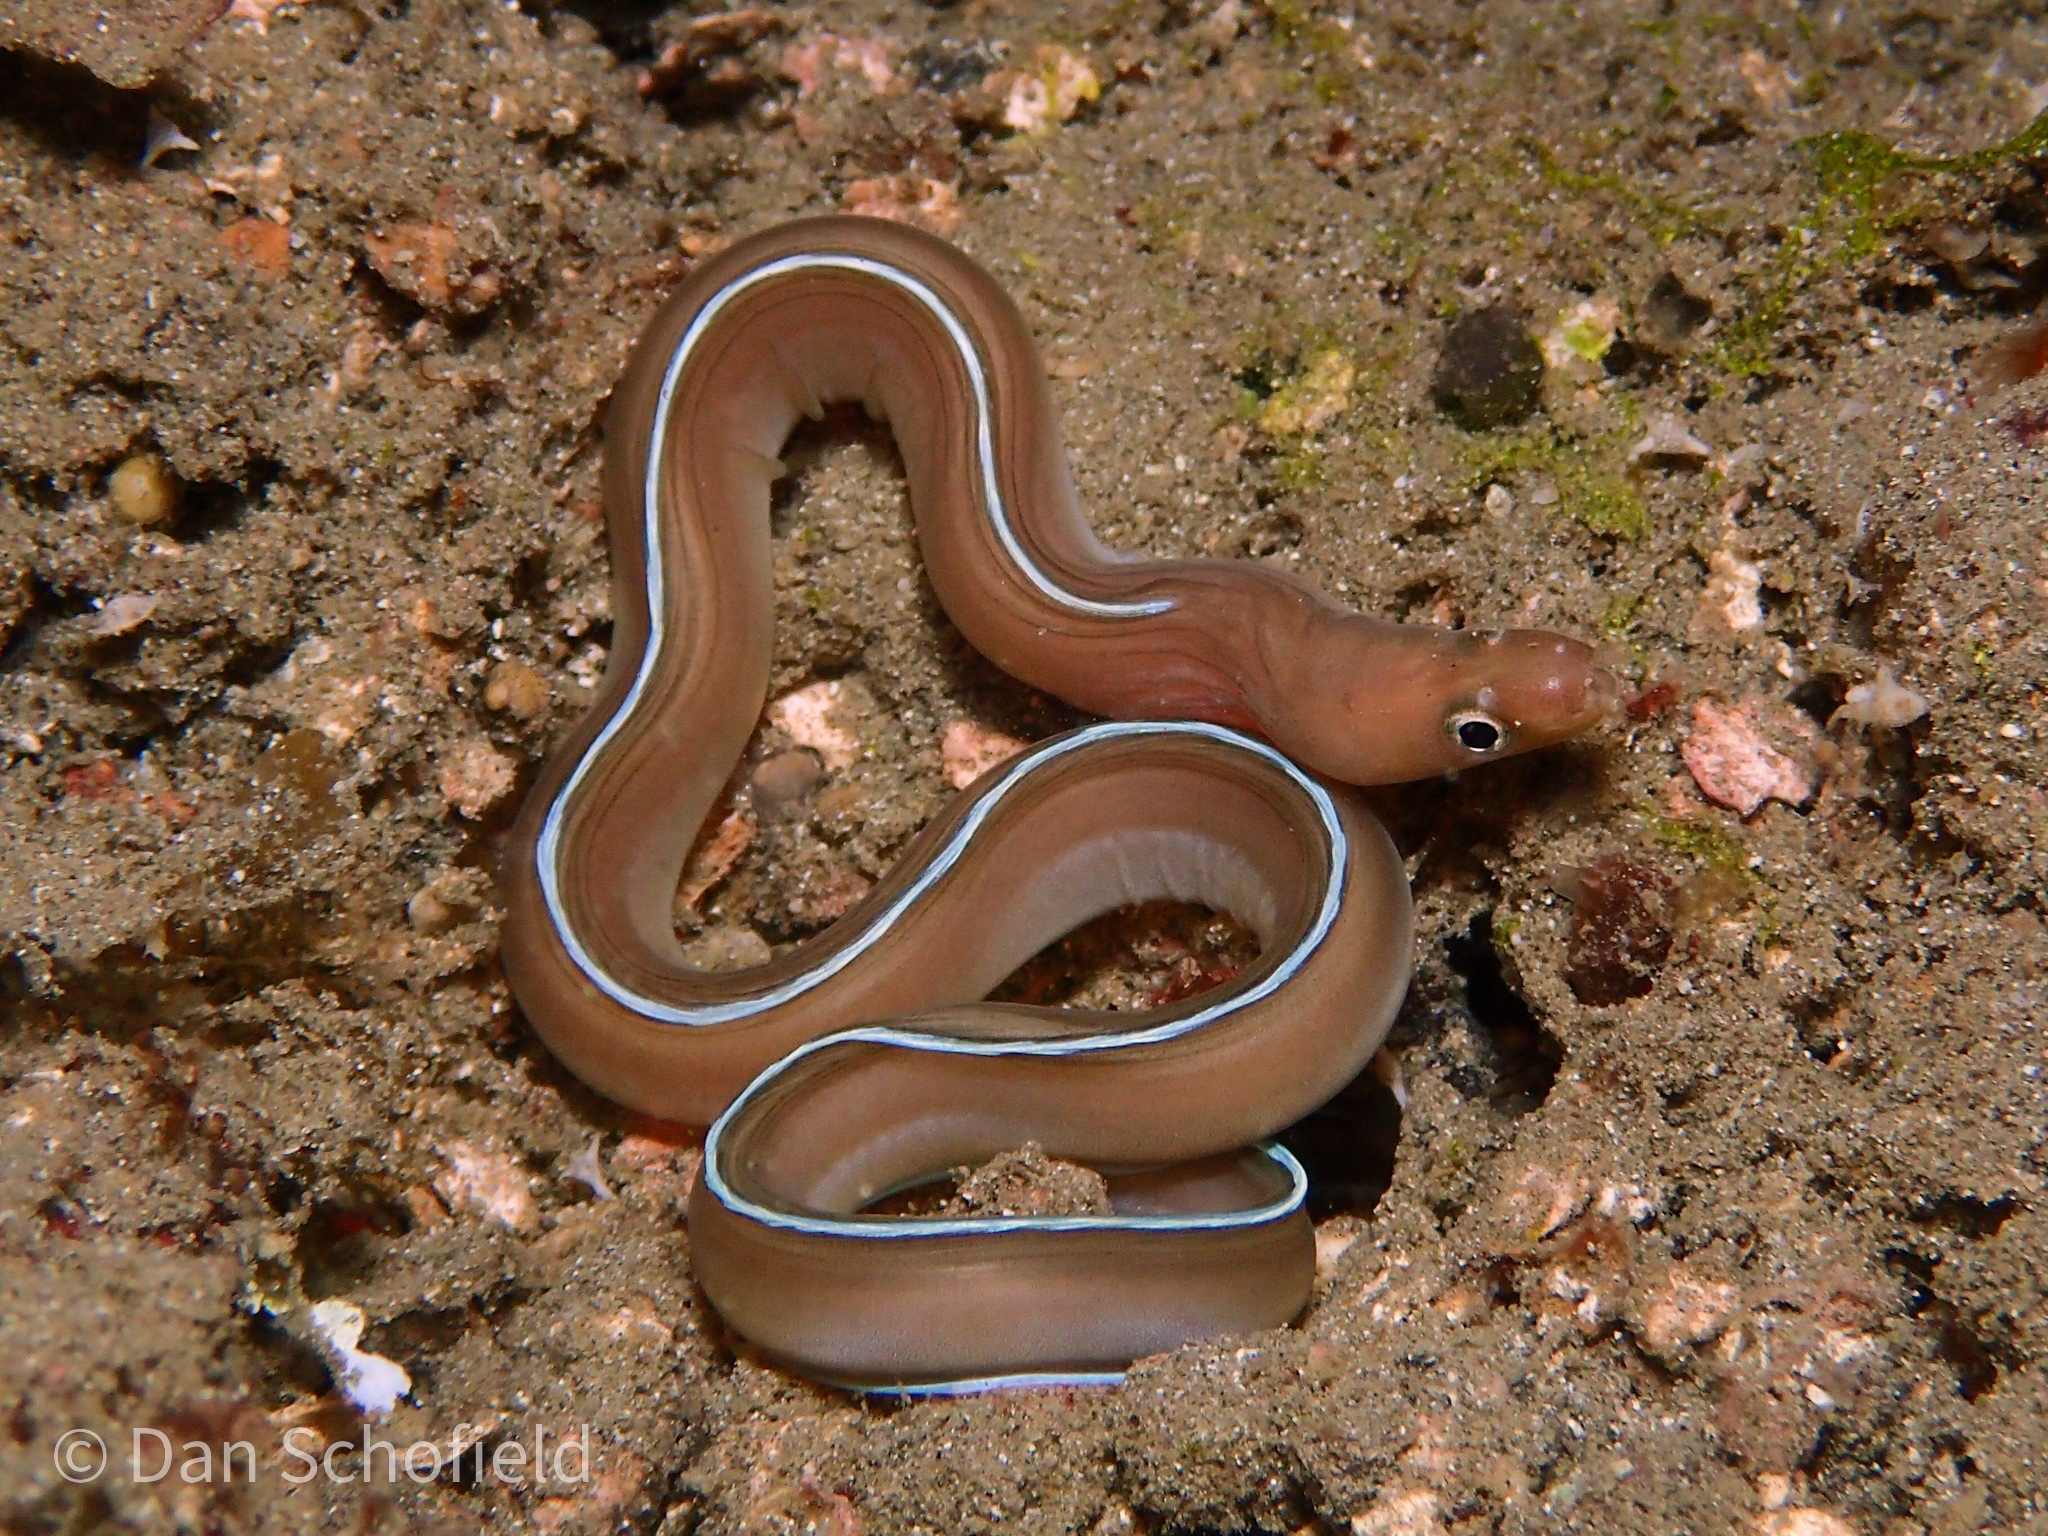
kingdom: Animalia
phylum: Chordata
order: Anguilliformes
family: Muraenidae
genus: Gymnothorax
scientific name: Gymnothorax albimarginatus
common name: Whitemargin moray
